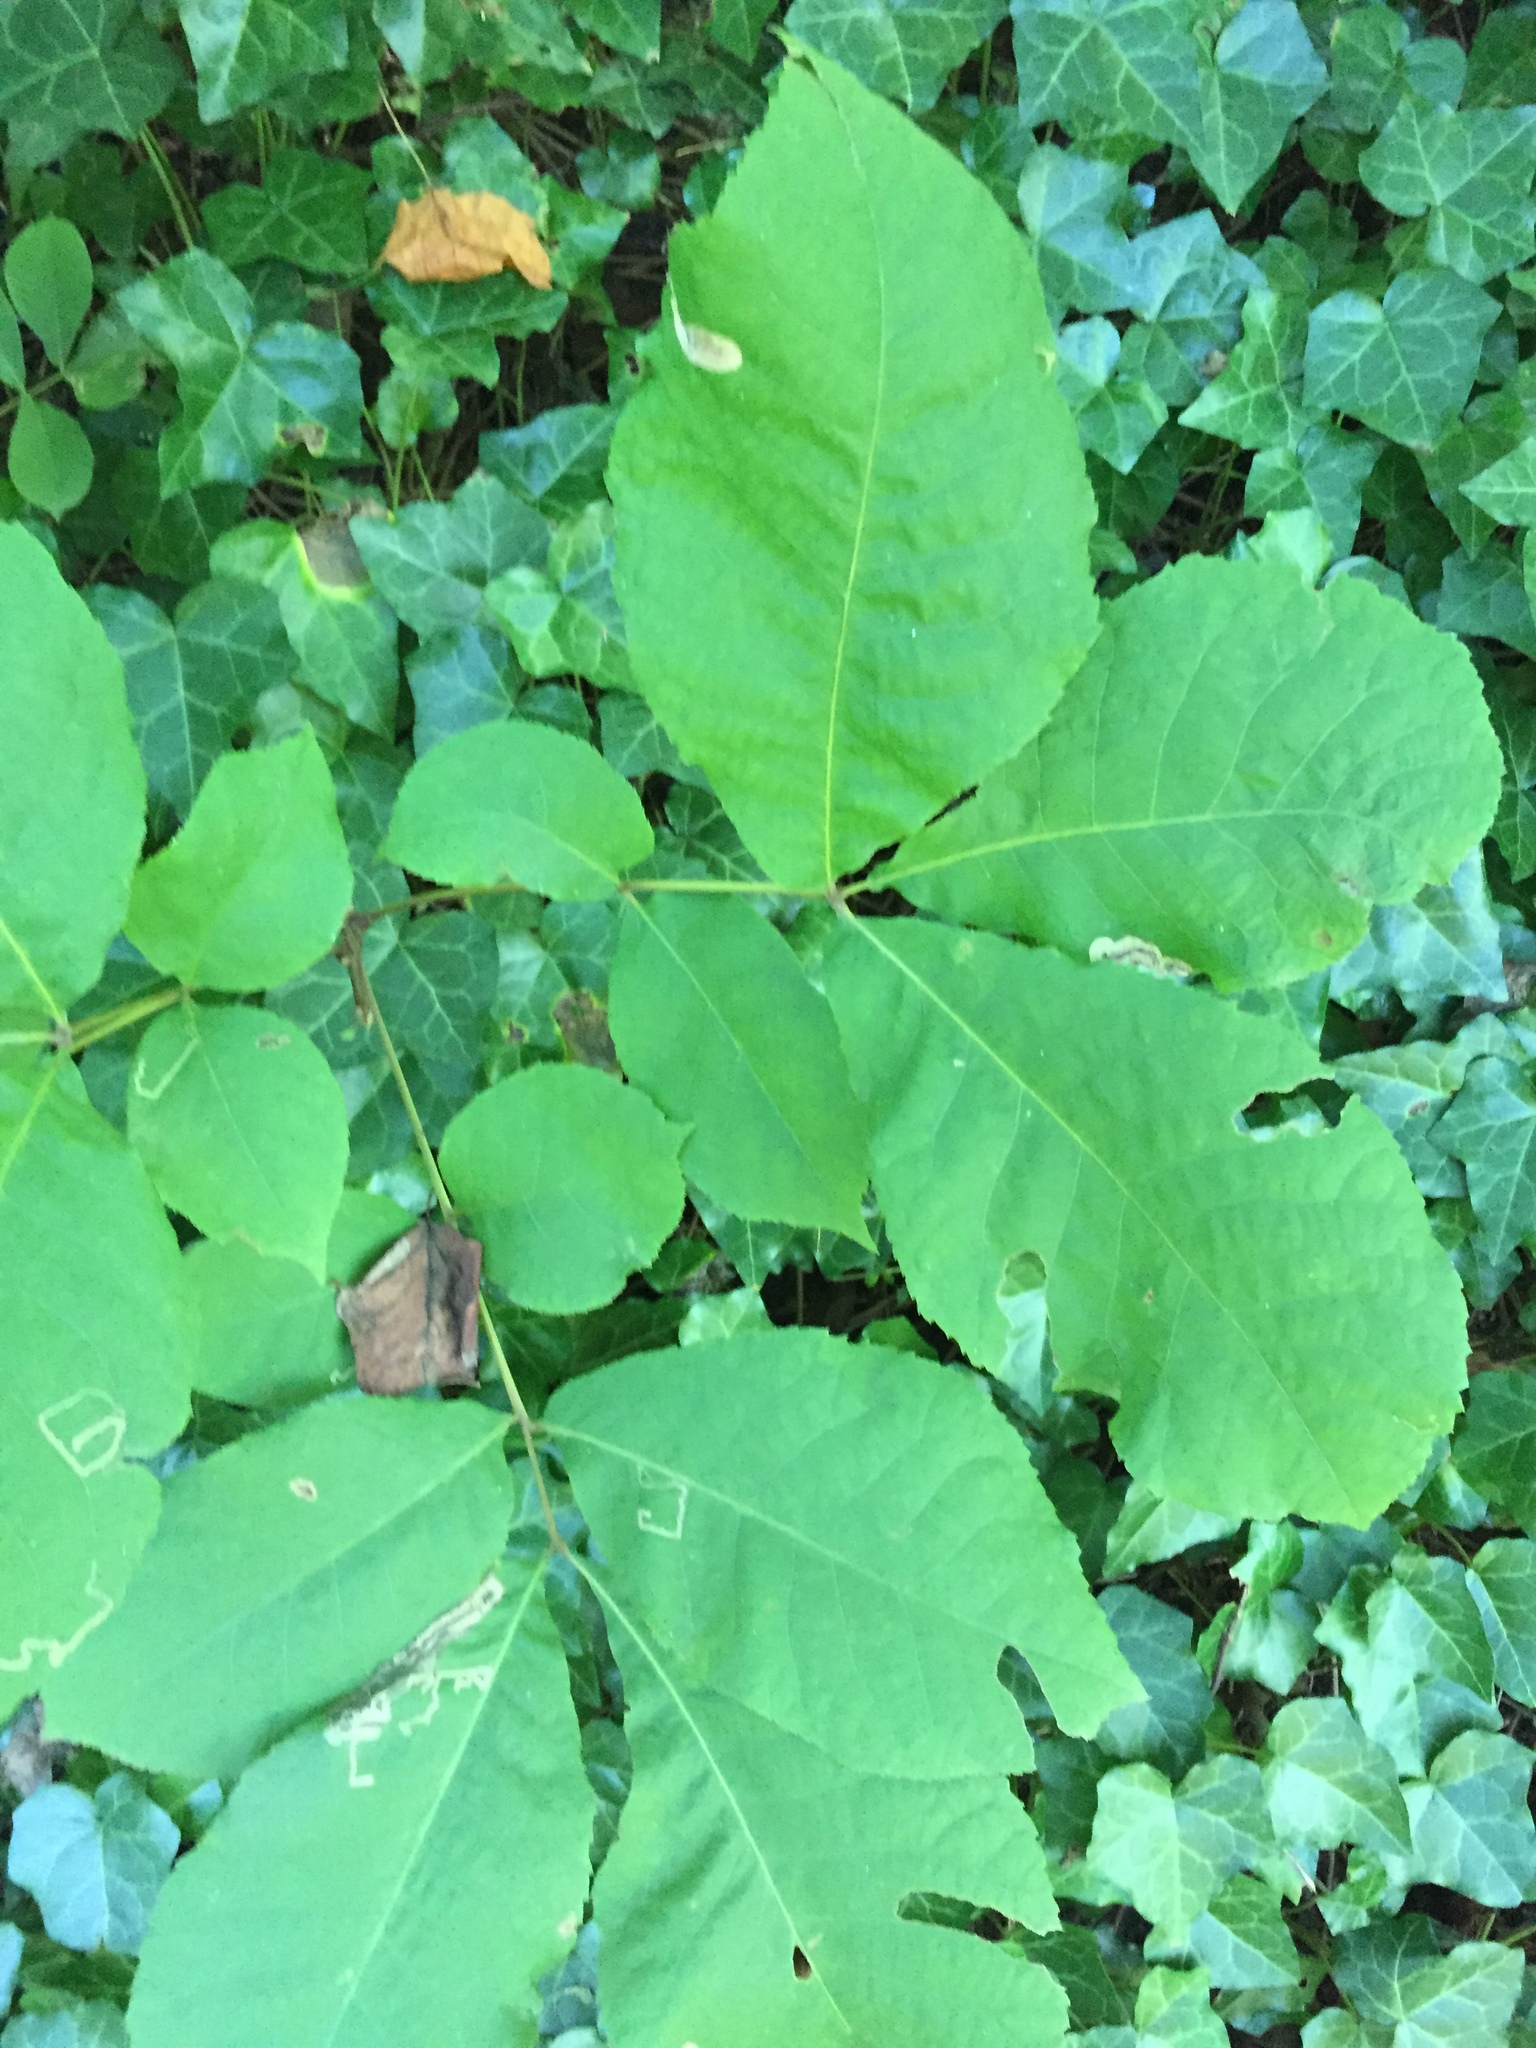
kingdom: Animalia
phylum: Arthropoda
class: Insecta
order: Lepidoptera
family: Nepticulidae
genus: Stigmella
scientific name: Stigmella caryaefoliella
